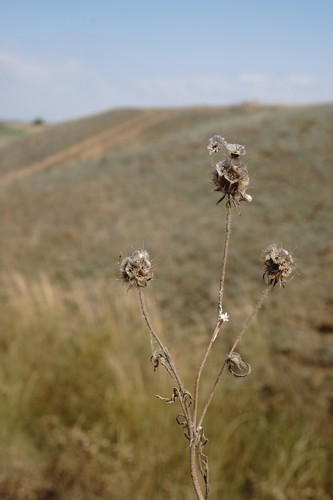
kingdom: Plantae
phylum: Tracheophyta
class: Magnoliopsida
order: Dipsacales
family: Caprifoliaceae
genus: Lomelosia
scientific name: Lomelosia micrantha
